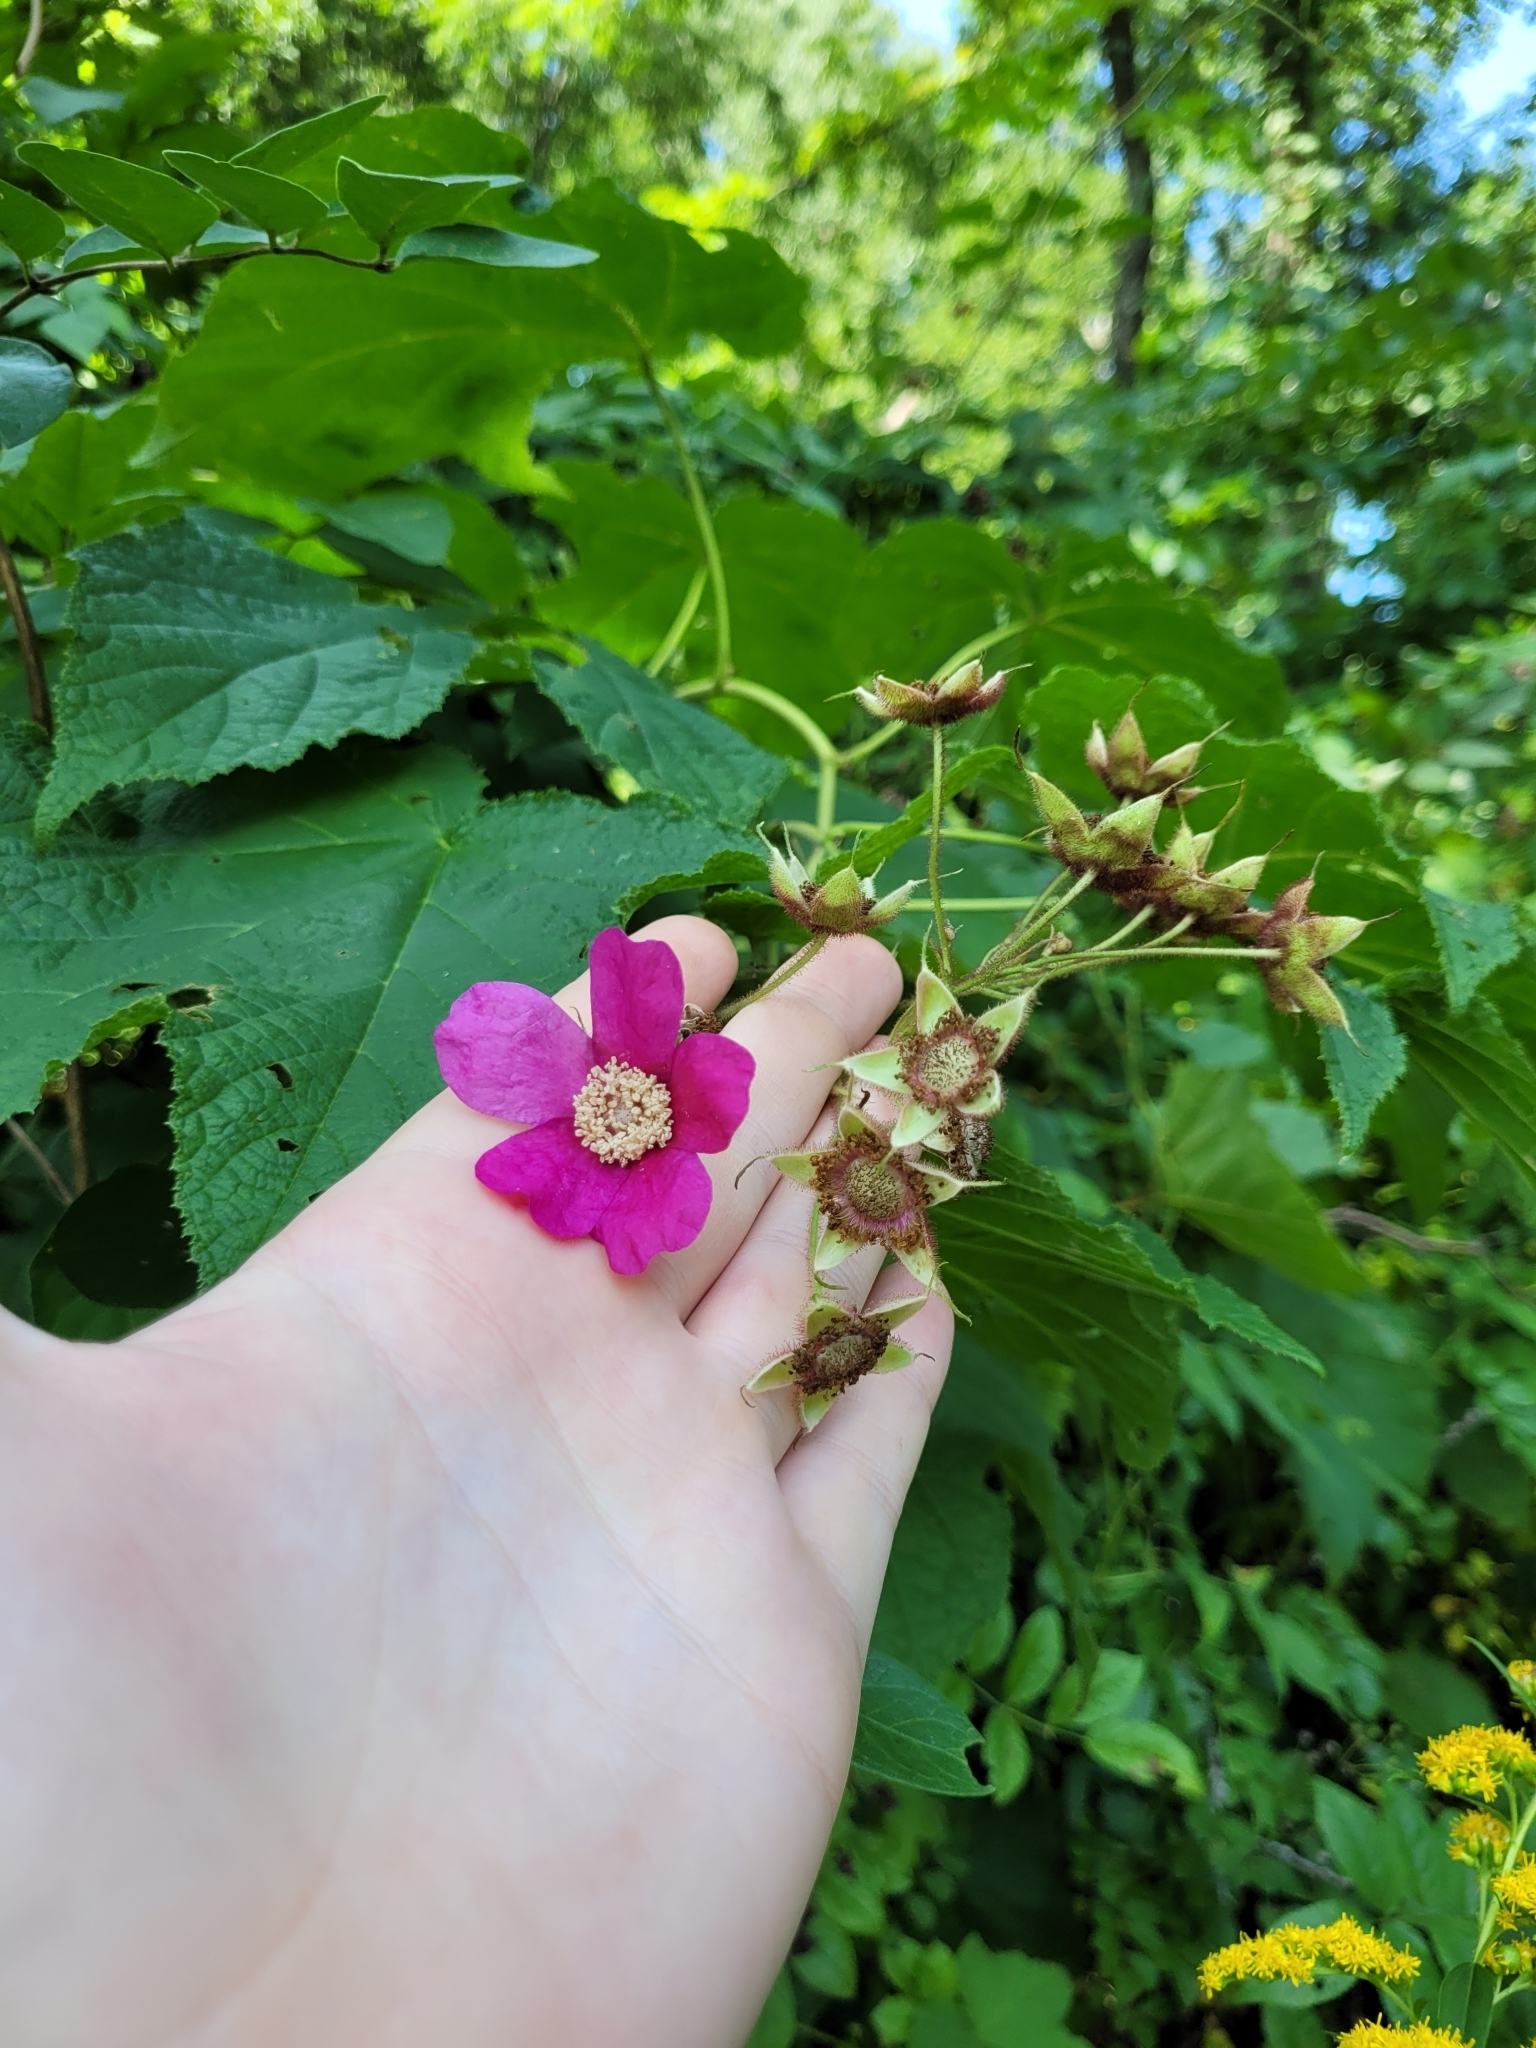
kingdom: Plantae
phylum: Tracheophyta
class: Magnoliopsida
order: Rosales
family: Rosaceae
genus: Rubus
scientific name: Rubus odoratus
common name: Purple-flowered raspberry
